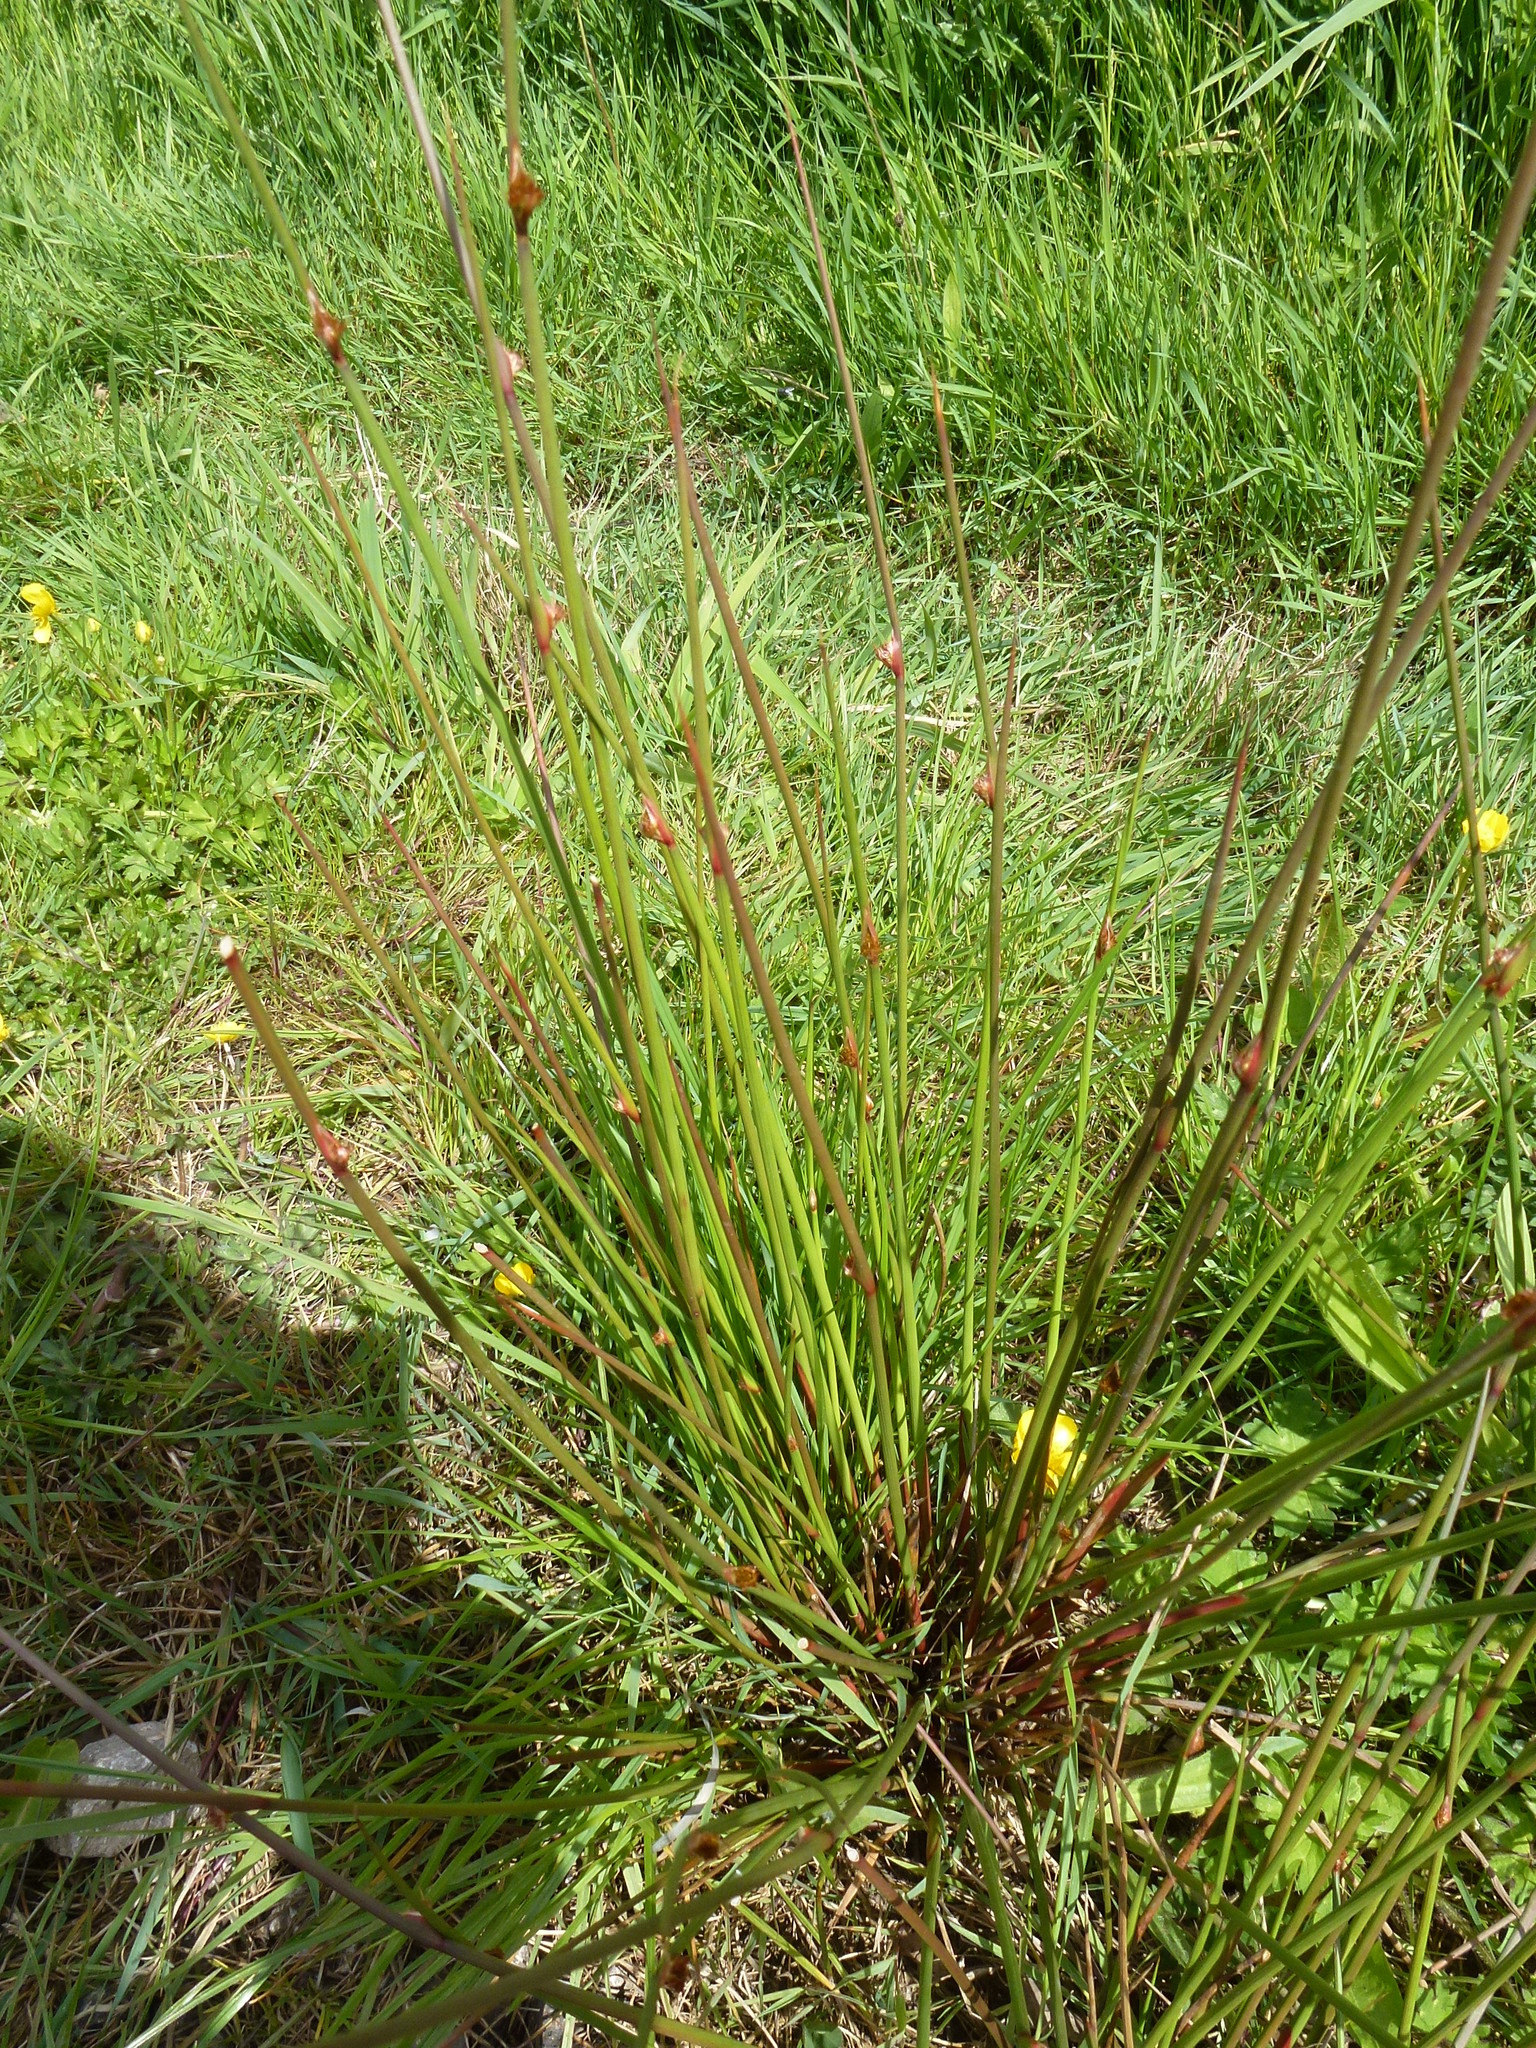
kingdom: Plantae
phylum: Tracheophyta
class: Liliopsida
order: Poales
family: Juncaceae
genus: Juncus
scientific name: Juncus effusus
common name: Soft rush
